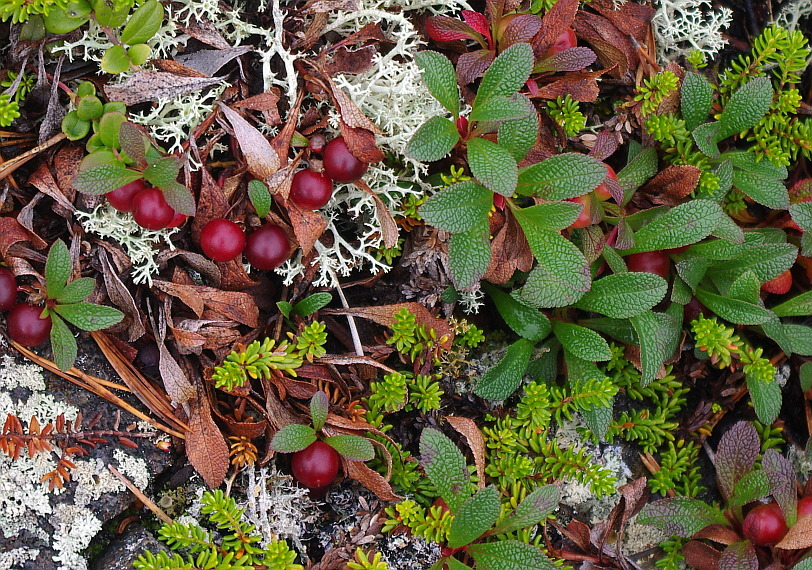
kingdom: Plantae
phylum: Tracheophyta
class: Magnoliopsida
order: Ericales
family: Ericaceae
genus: Arctostaphylos
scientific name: Arctostaphylos alpinus
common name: Alpine bearberry
